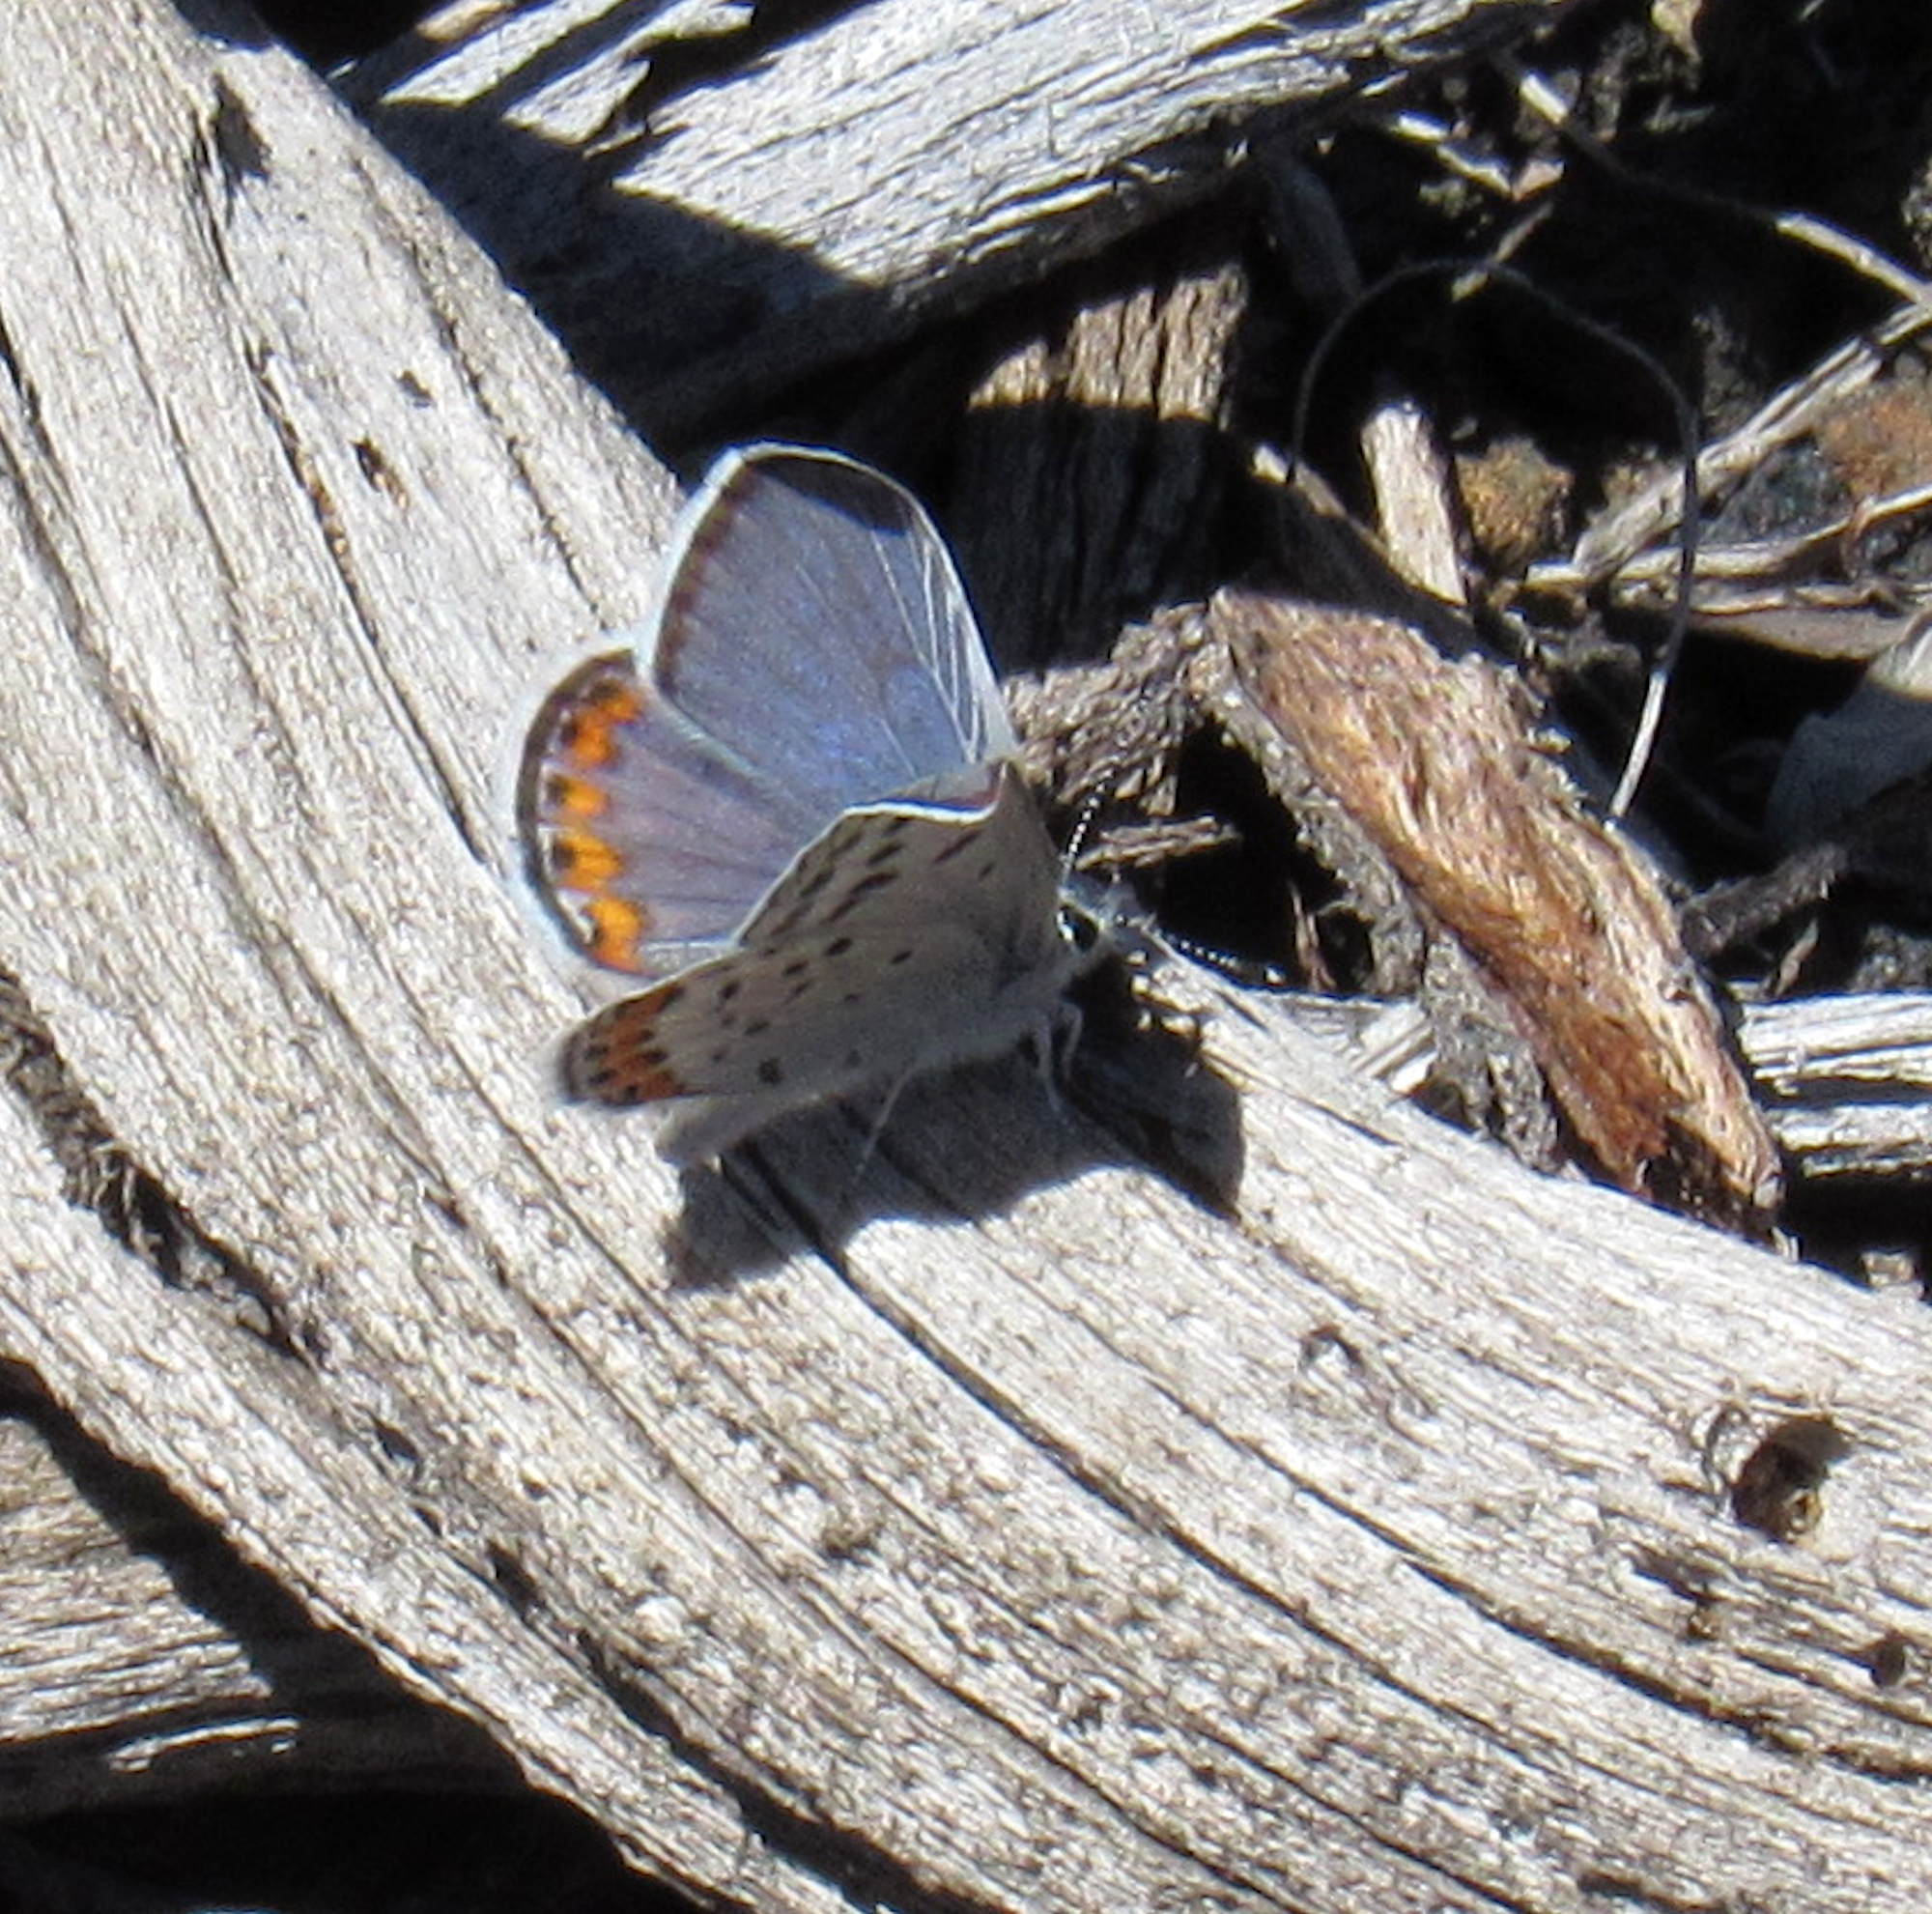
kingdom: Animalia
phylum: Arthropoda
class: Insecta
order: Lepidoptera
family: Lycaenidae
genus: Icaricia
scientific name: Icaricia lupini
